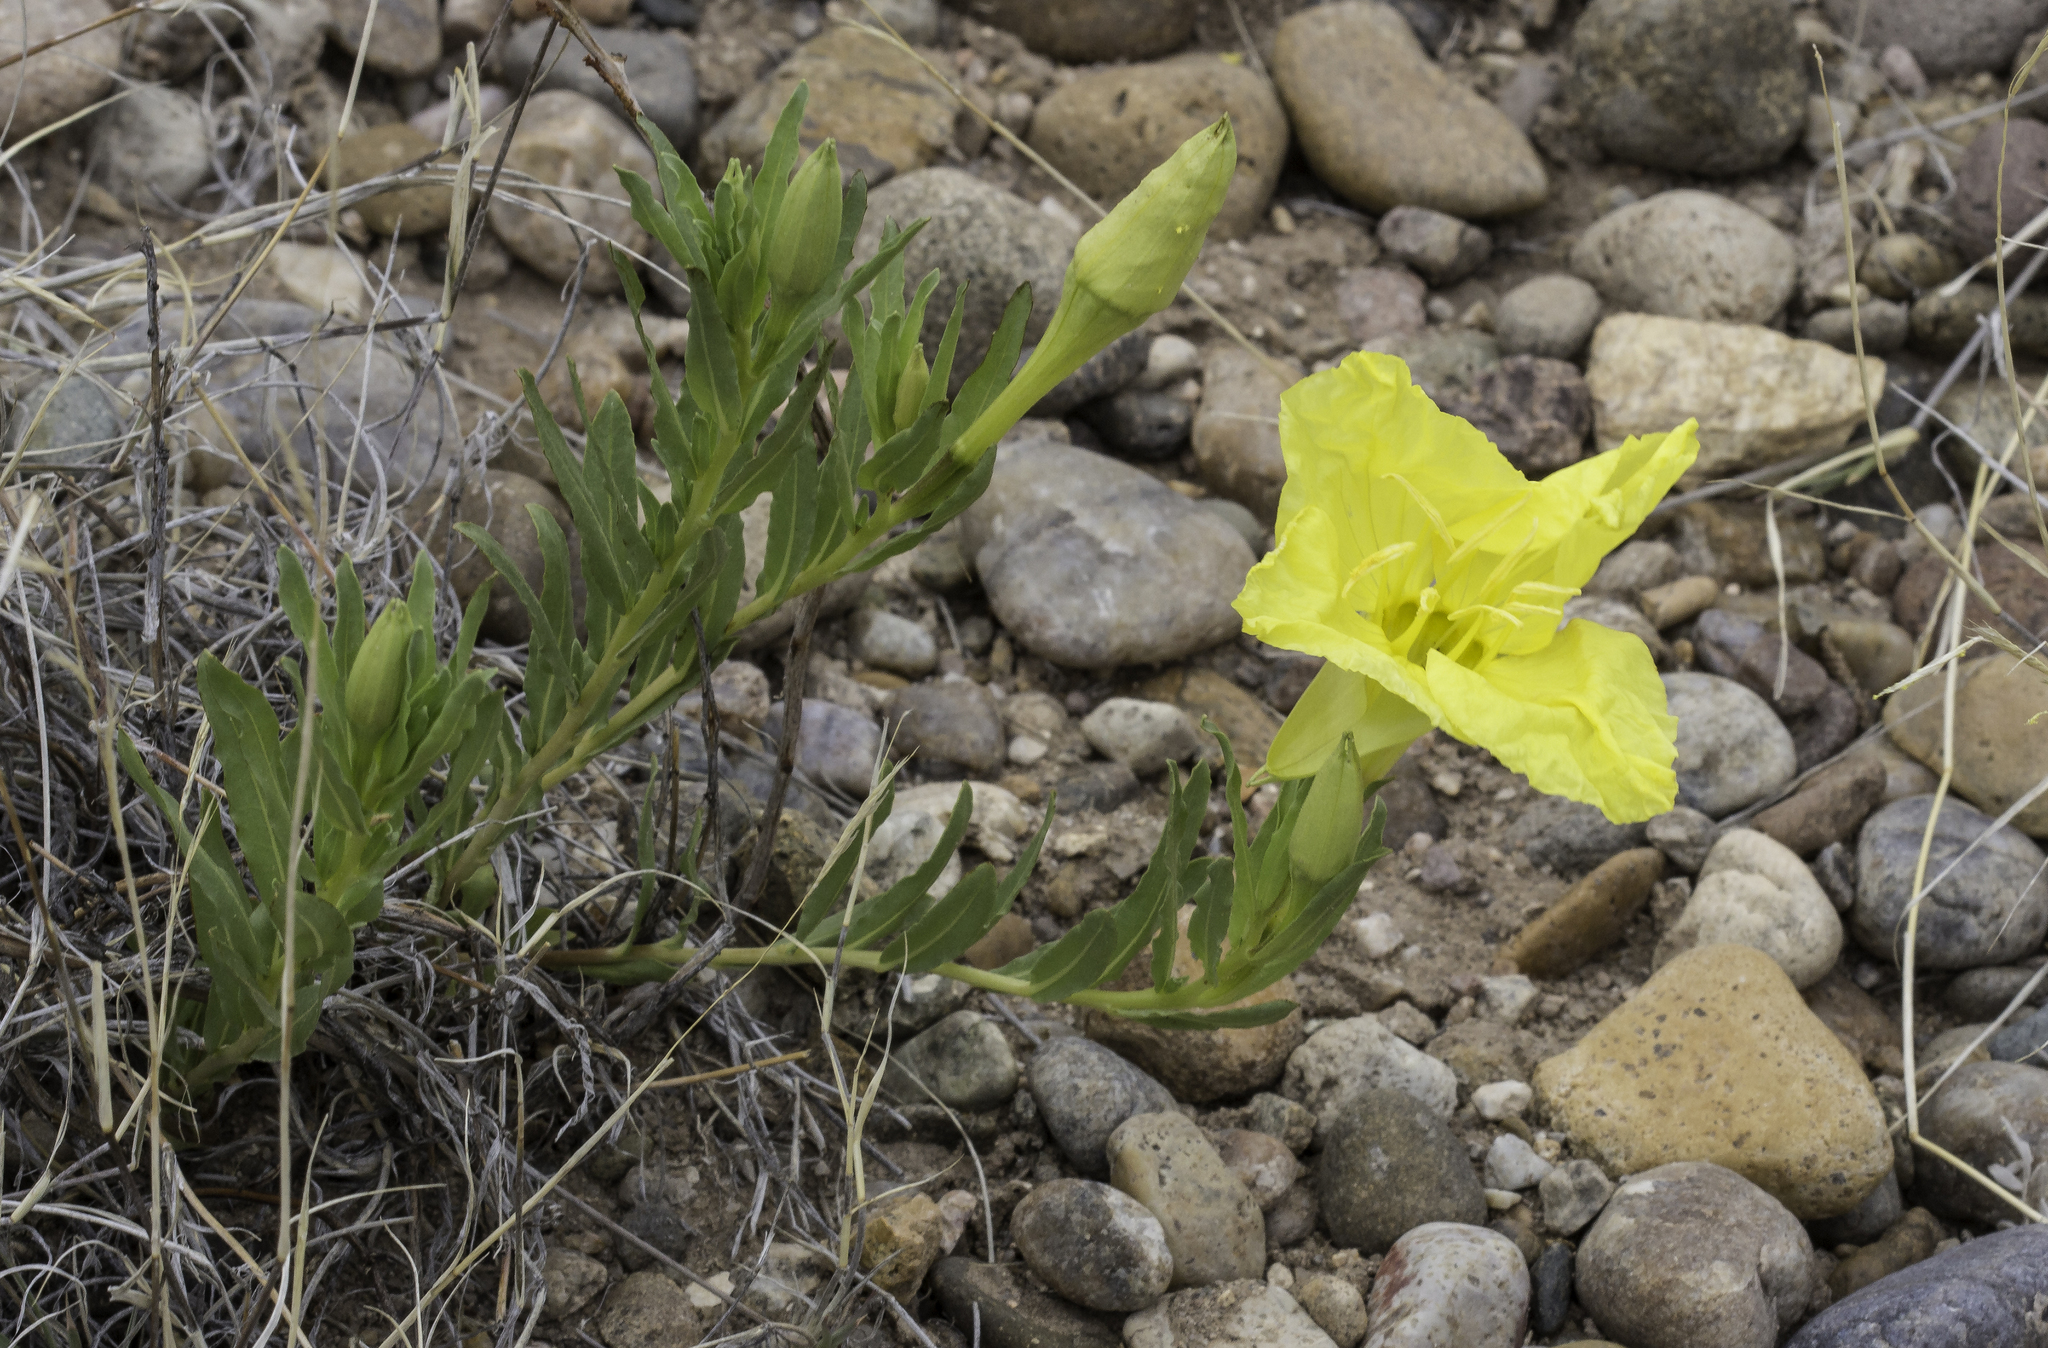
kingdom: Plantae
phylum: Tracheophyta
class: Magnoliopsida
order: Myrtales
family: Onagraceae
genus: Oenothera
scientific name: Oenothera hartwegii
